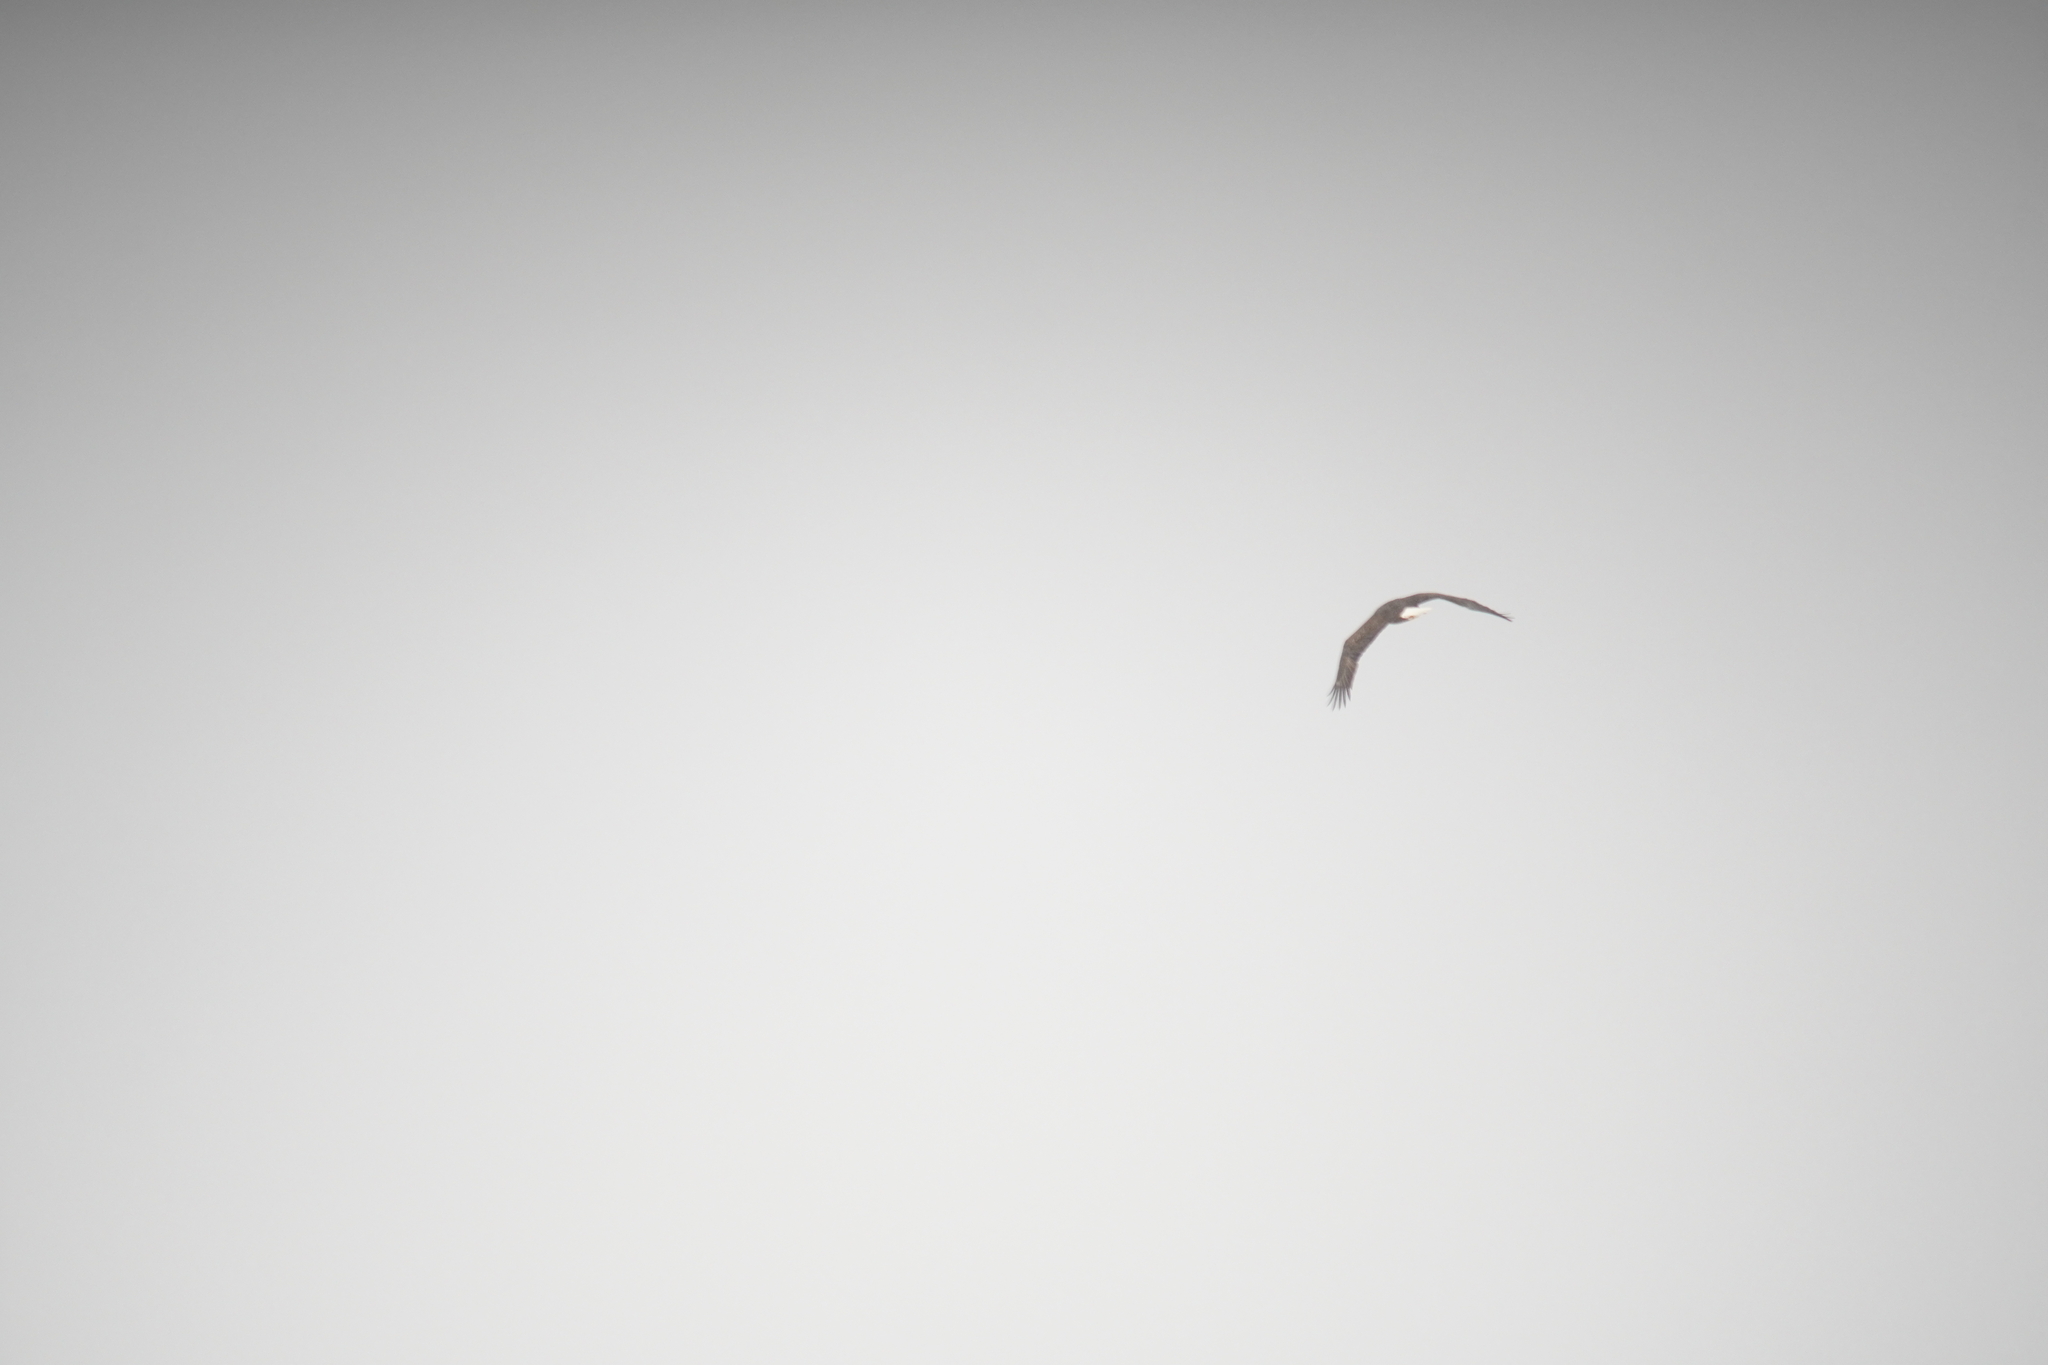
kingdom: Animalia
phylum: Chordata
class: Aves
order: Accipitriformes
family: Accipitridae
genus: Haliaeetus
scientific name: Haliaeetus leucocephalus
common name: Bald eagle
